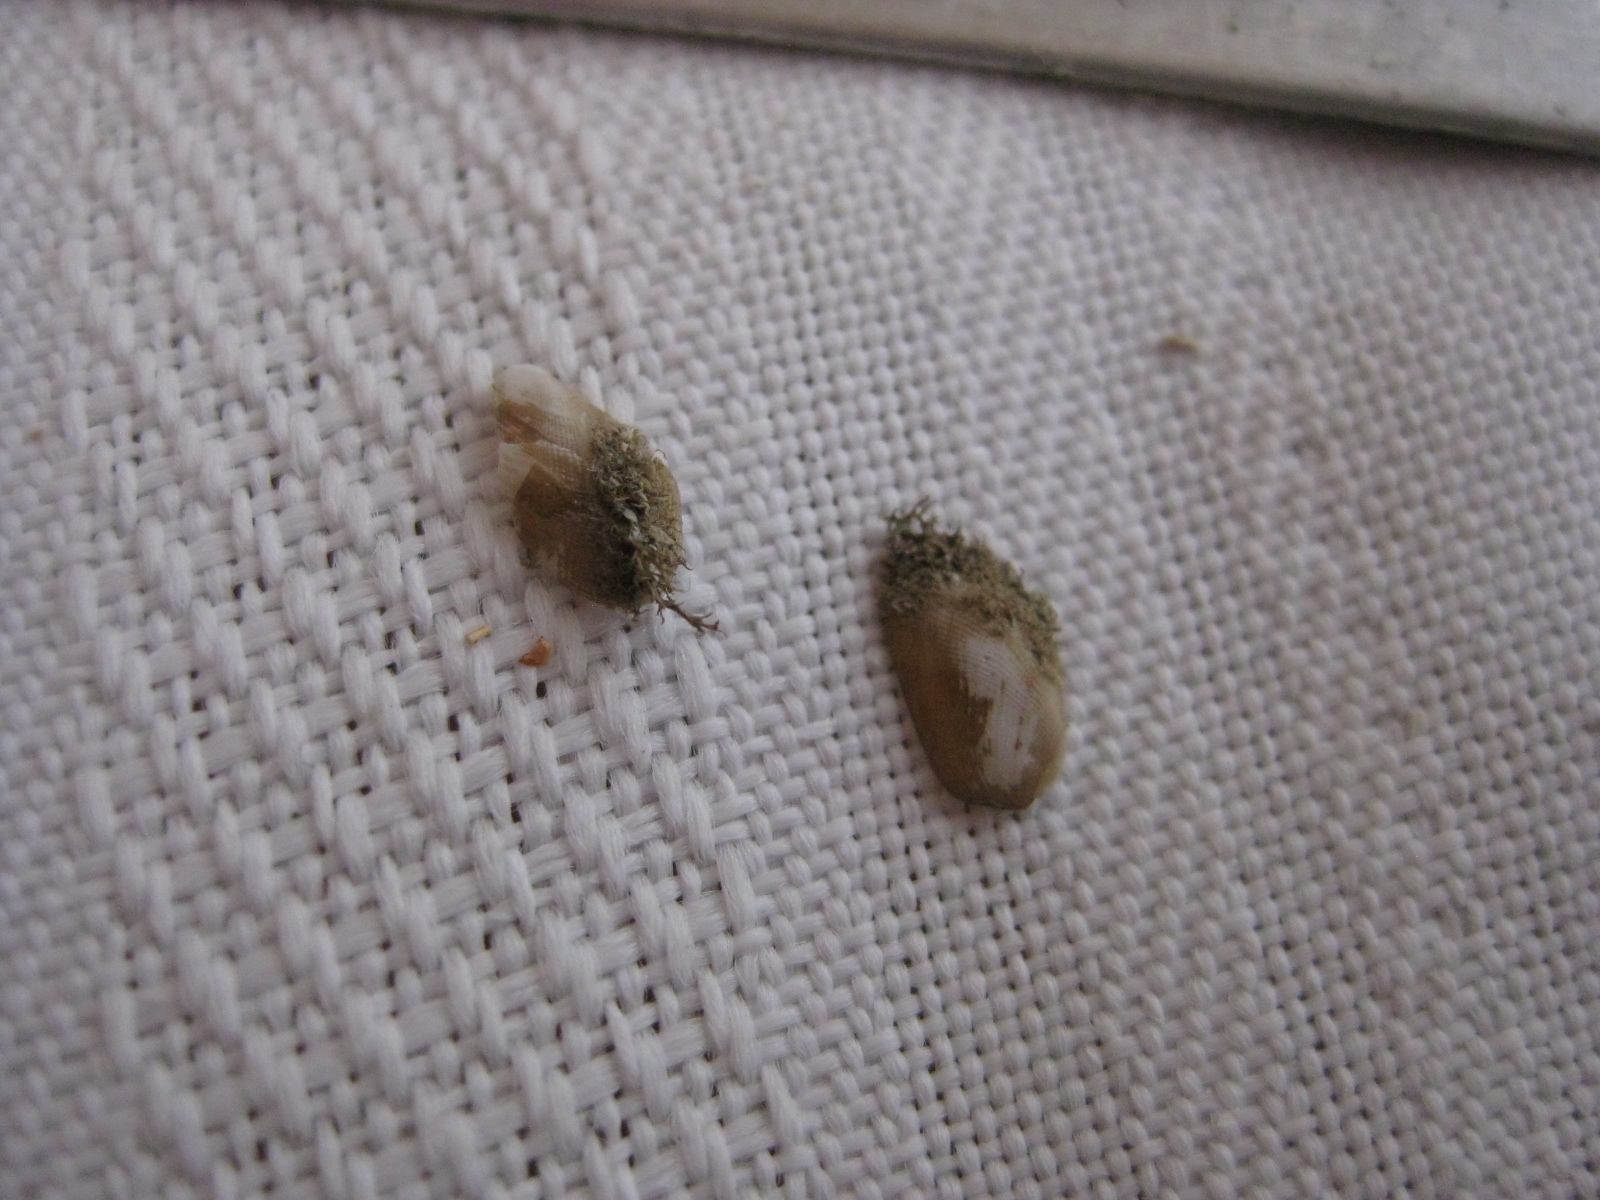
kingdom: Animalia
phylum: Mollusca
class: Bivalvia
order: Mytilida
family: Mytilidae
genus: Gregariella
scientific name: Gregariella barbata
